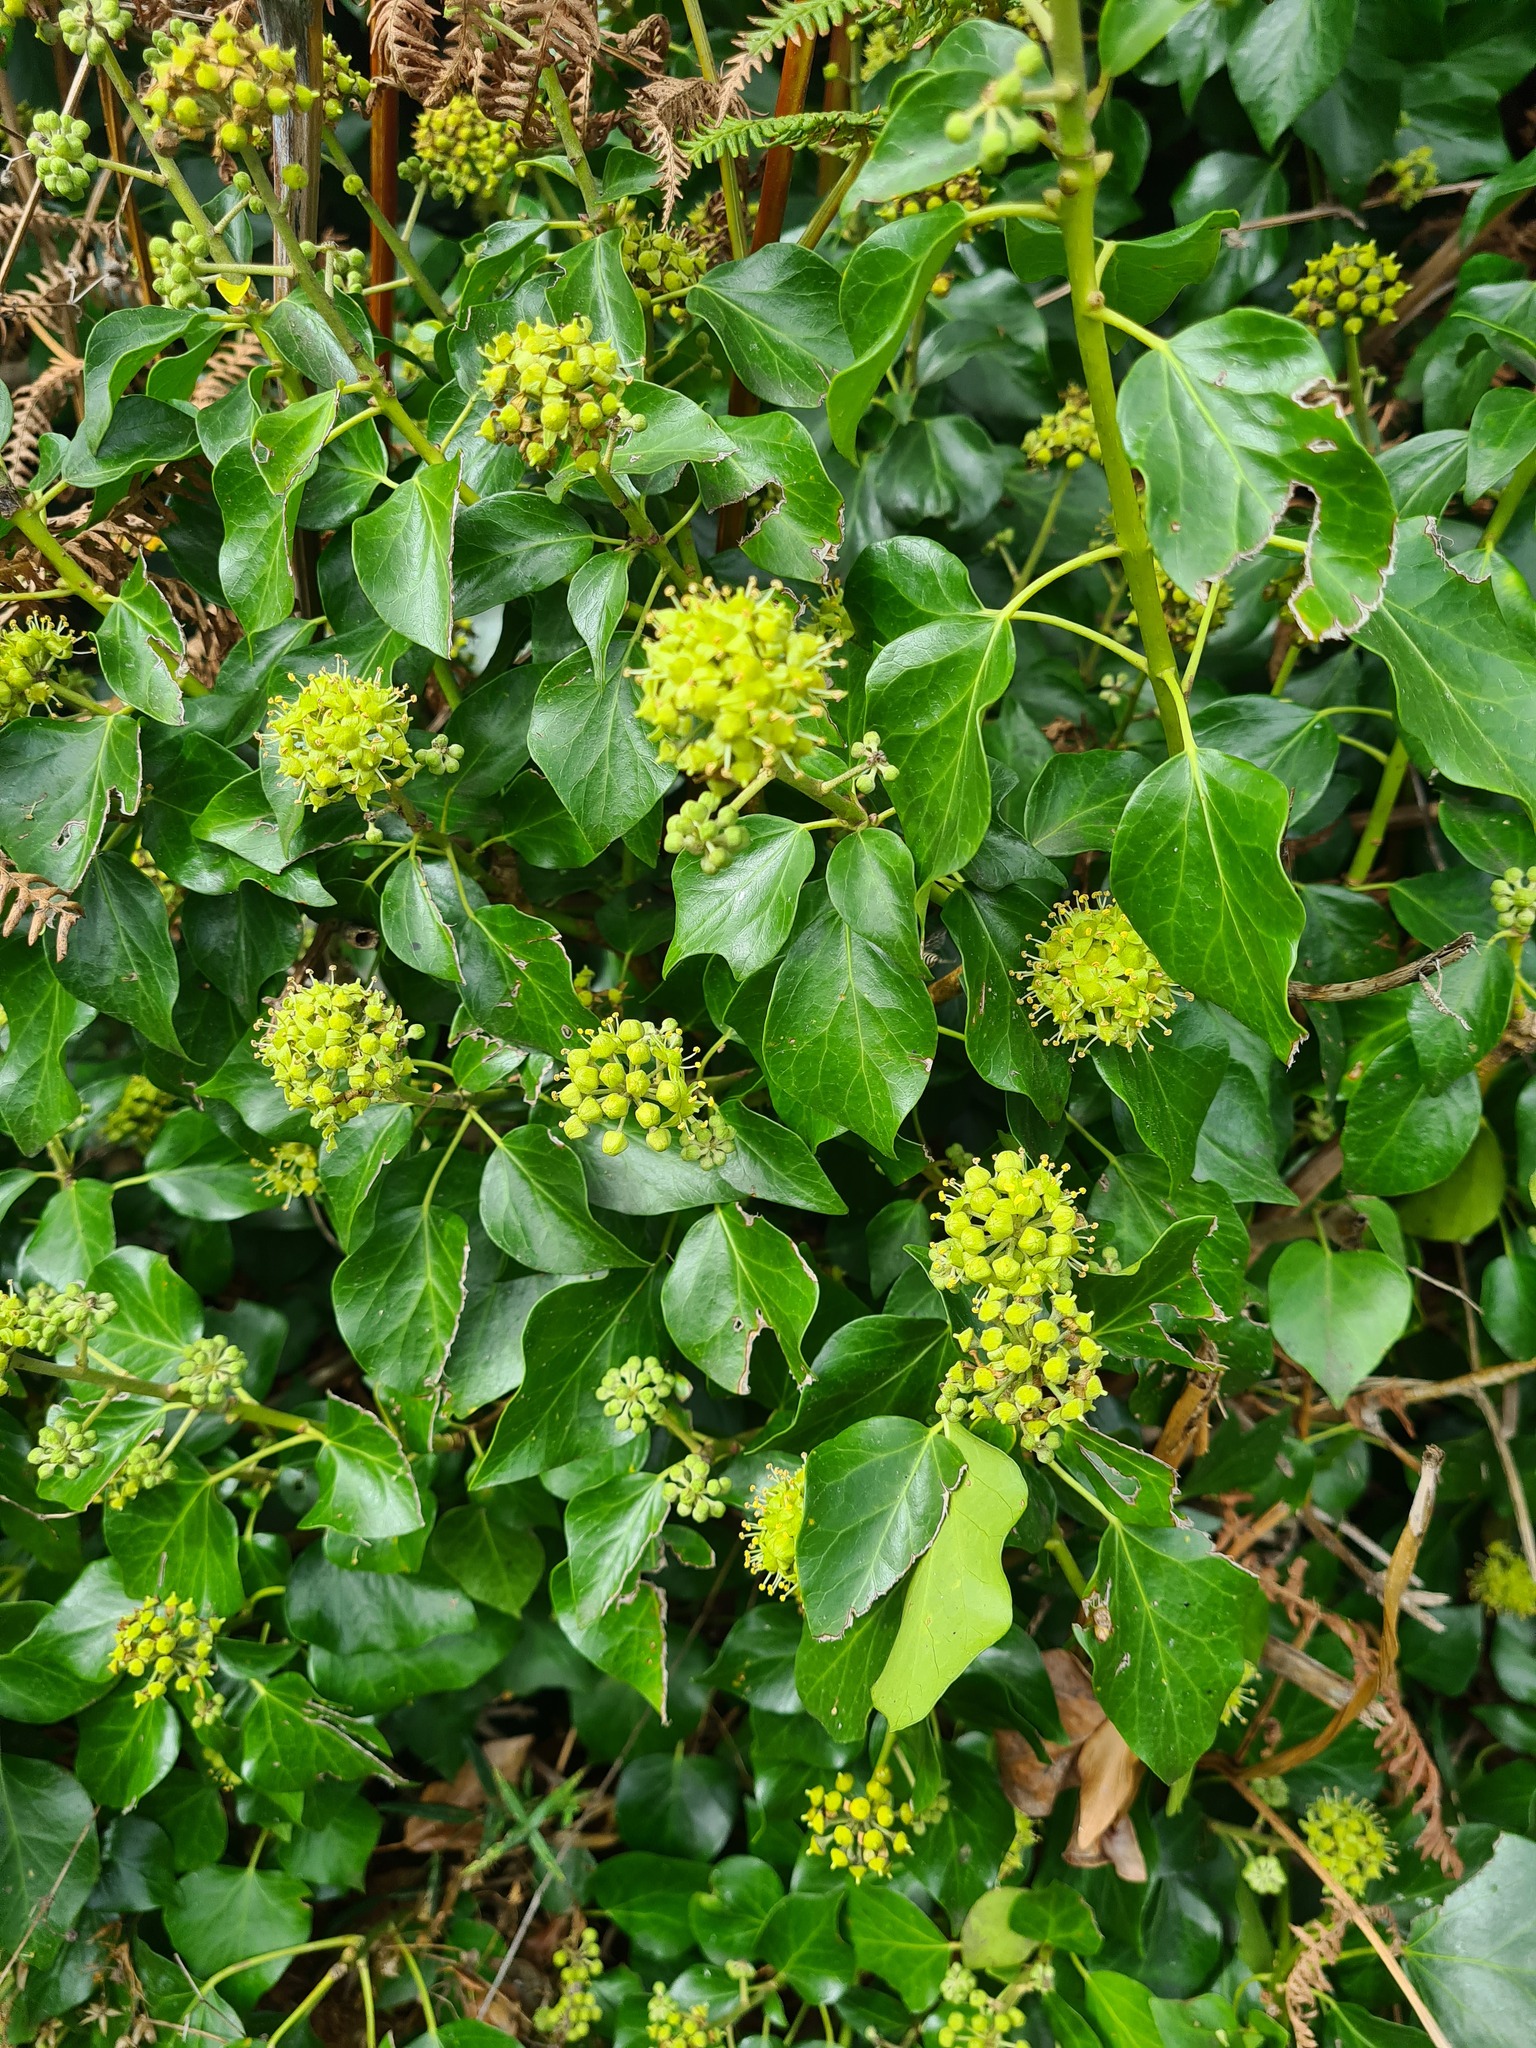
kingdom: Plantae
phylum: Tracheophyta
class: Magnoliopsida
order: Apiales
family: Araliaceae
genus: Hedera
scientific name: Hedera helix
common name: Ivy
